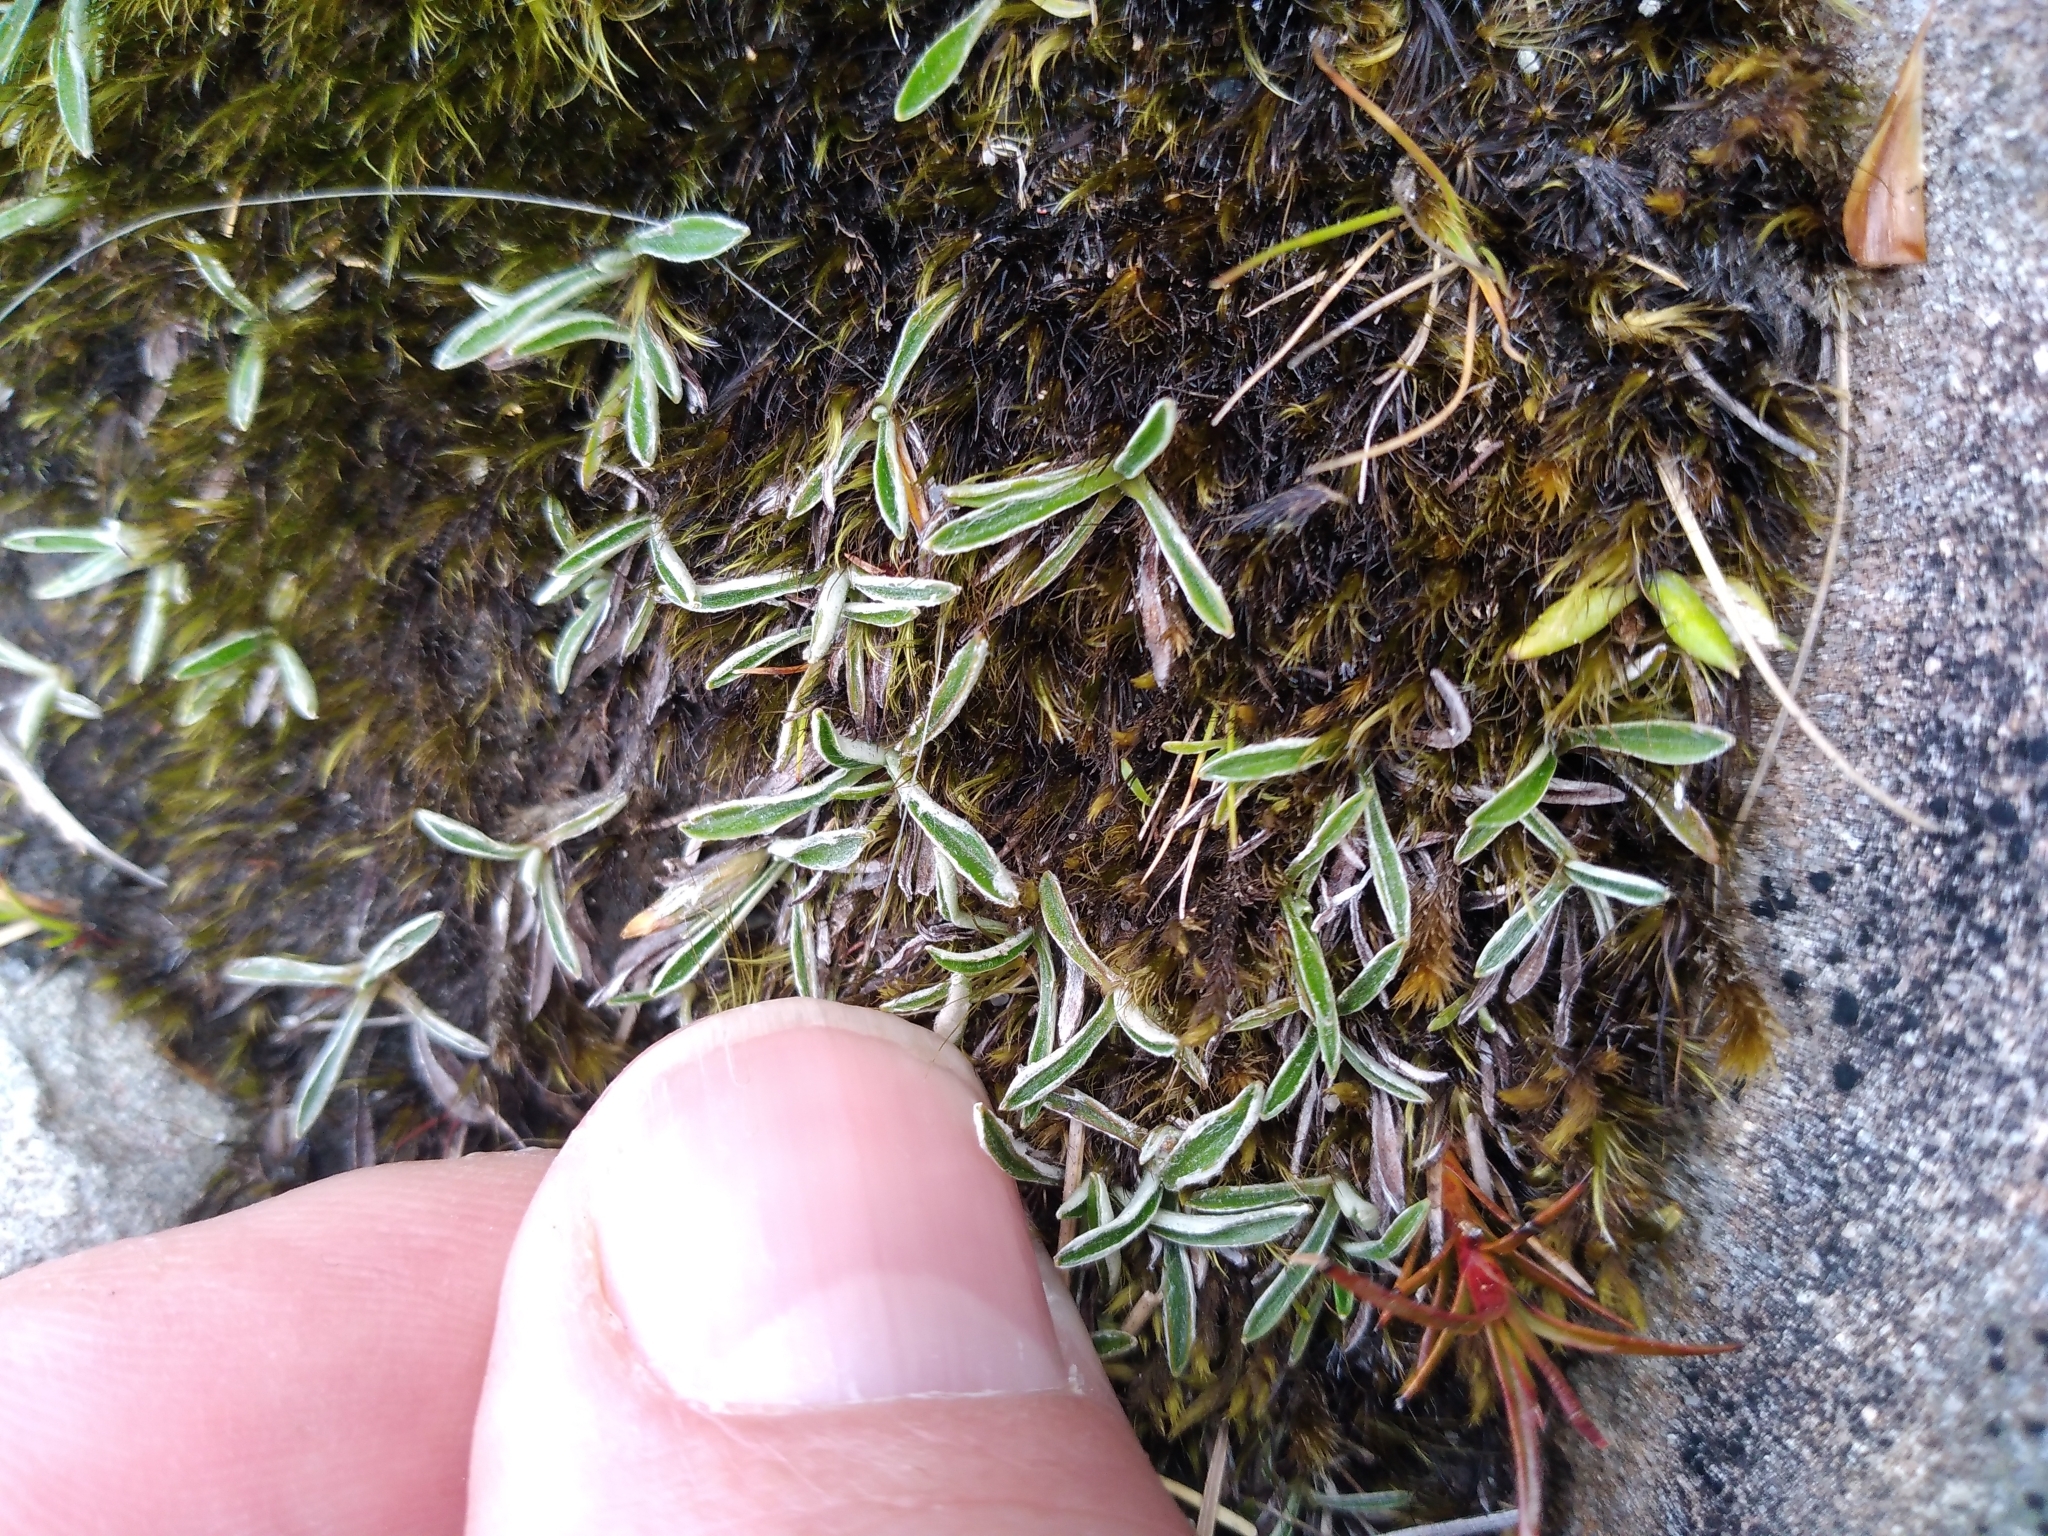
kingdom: Plantae
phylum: Tracheophyta
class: Magnoliopsida
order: Asterales
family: Asteraceae
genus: Euchiton
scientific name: Euchiton paludosus
